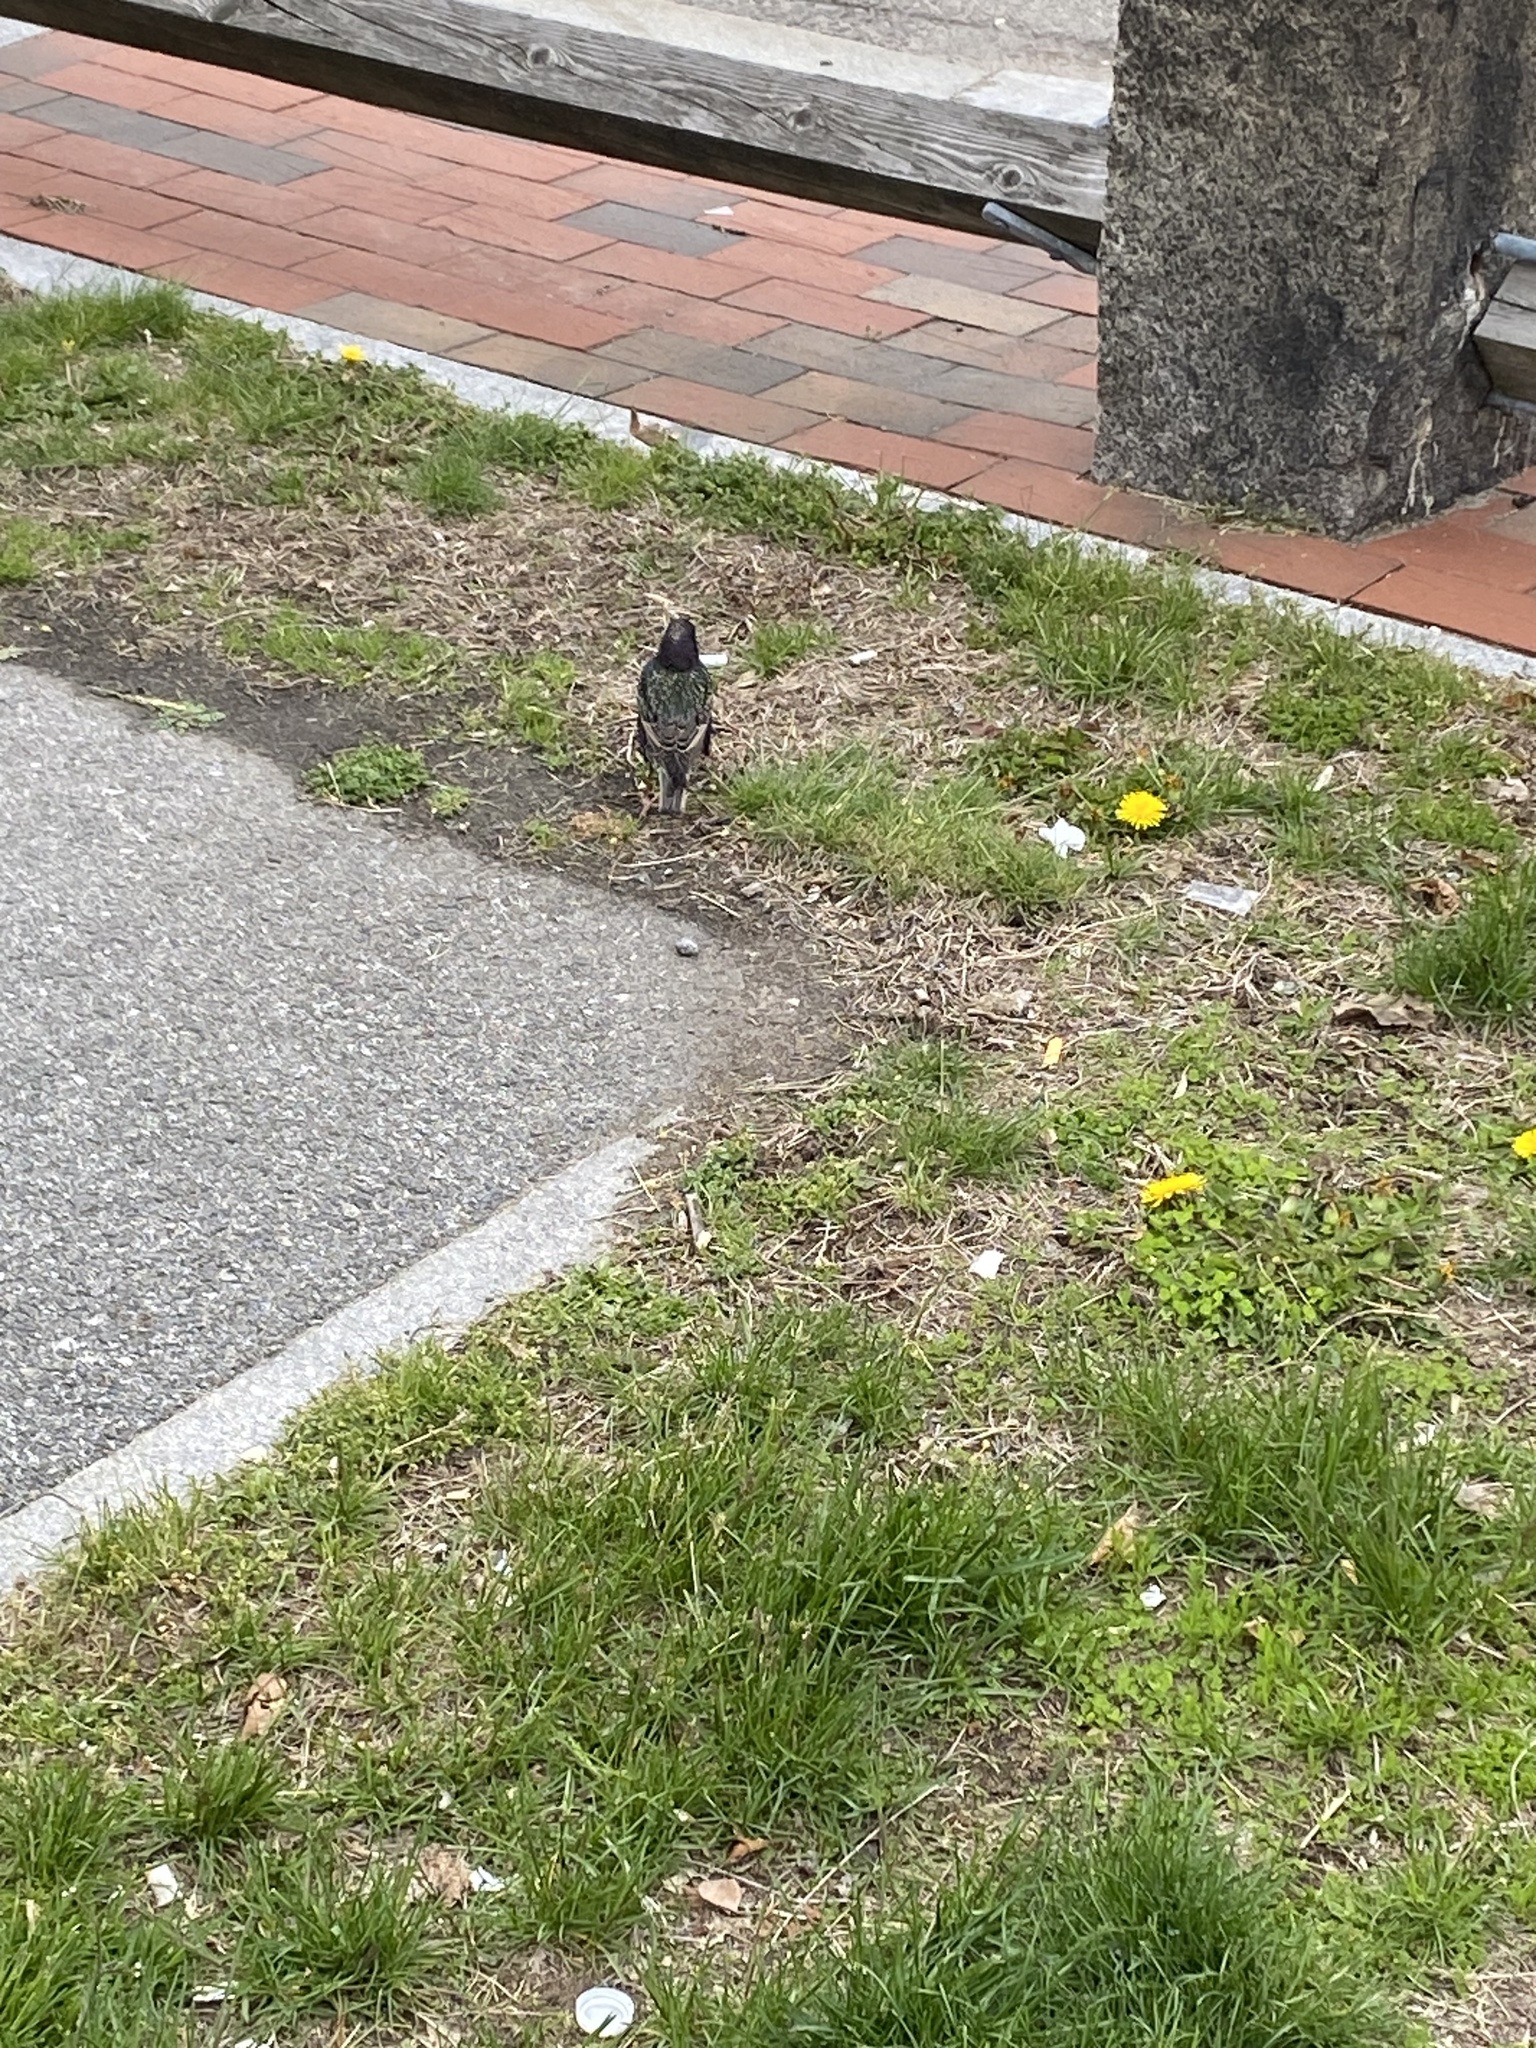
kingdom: Animalia
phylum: Chordata
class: Aves
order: Passeriformes
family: Sturnidae
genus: Sturnus
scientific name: Sturnus vulgaris
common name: Common starling
